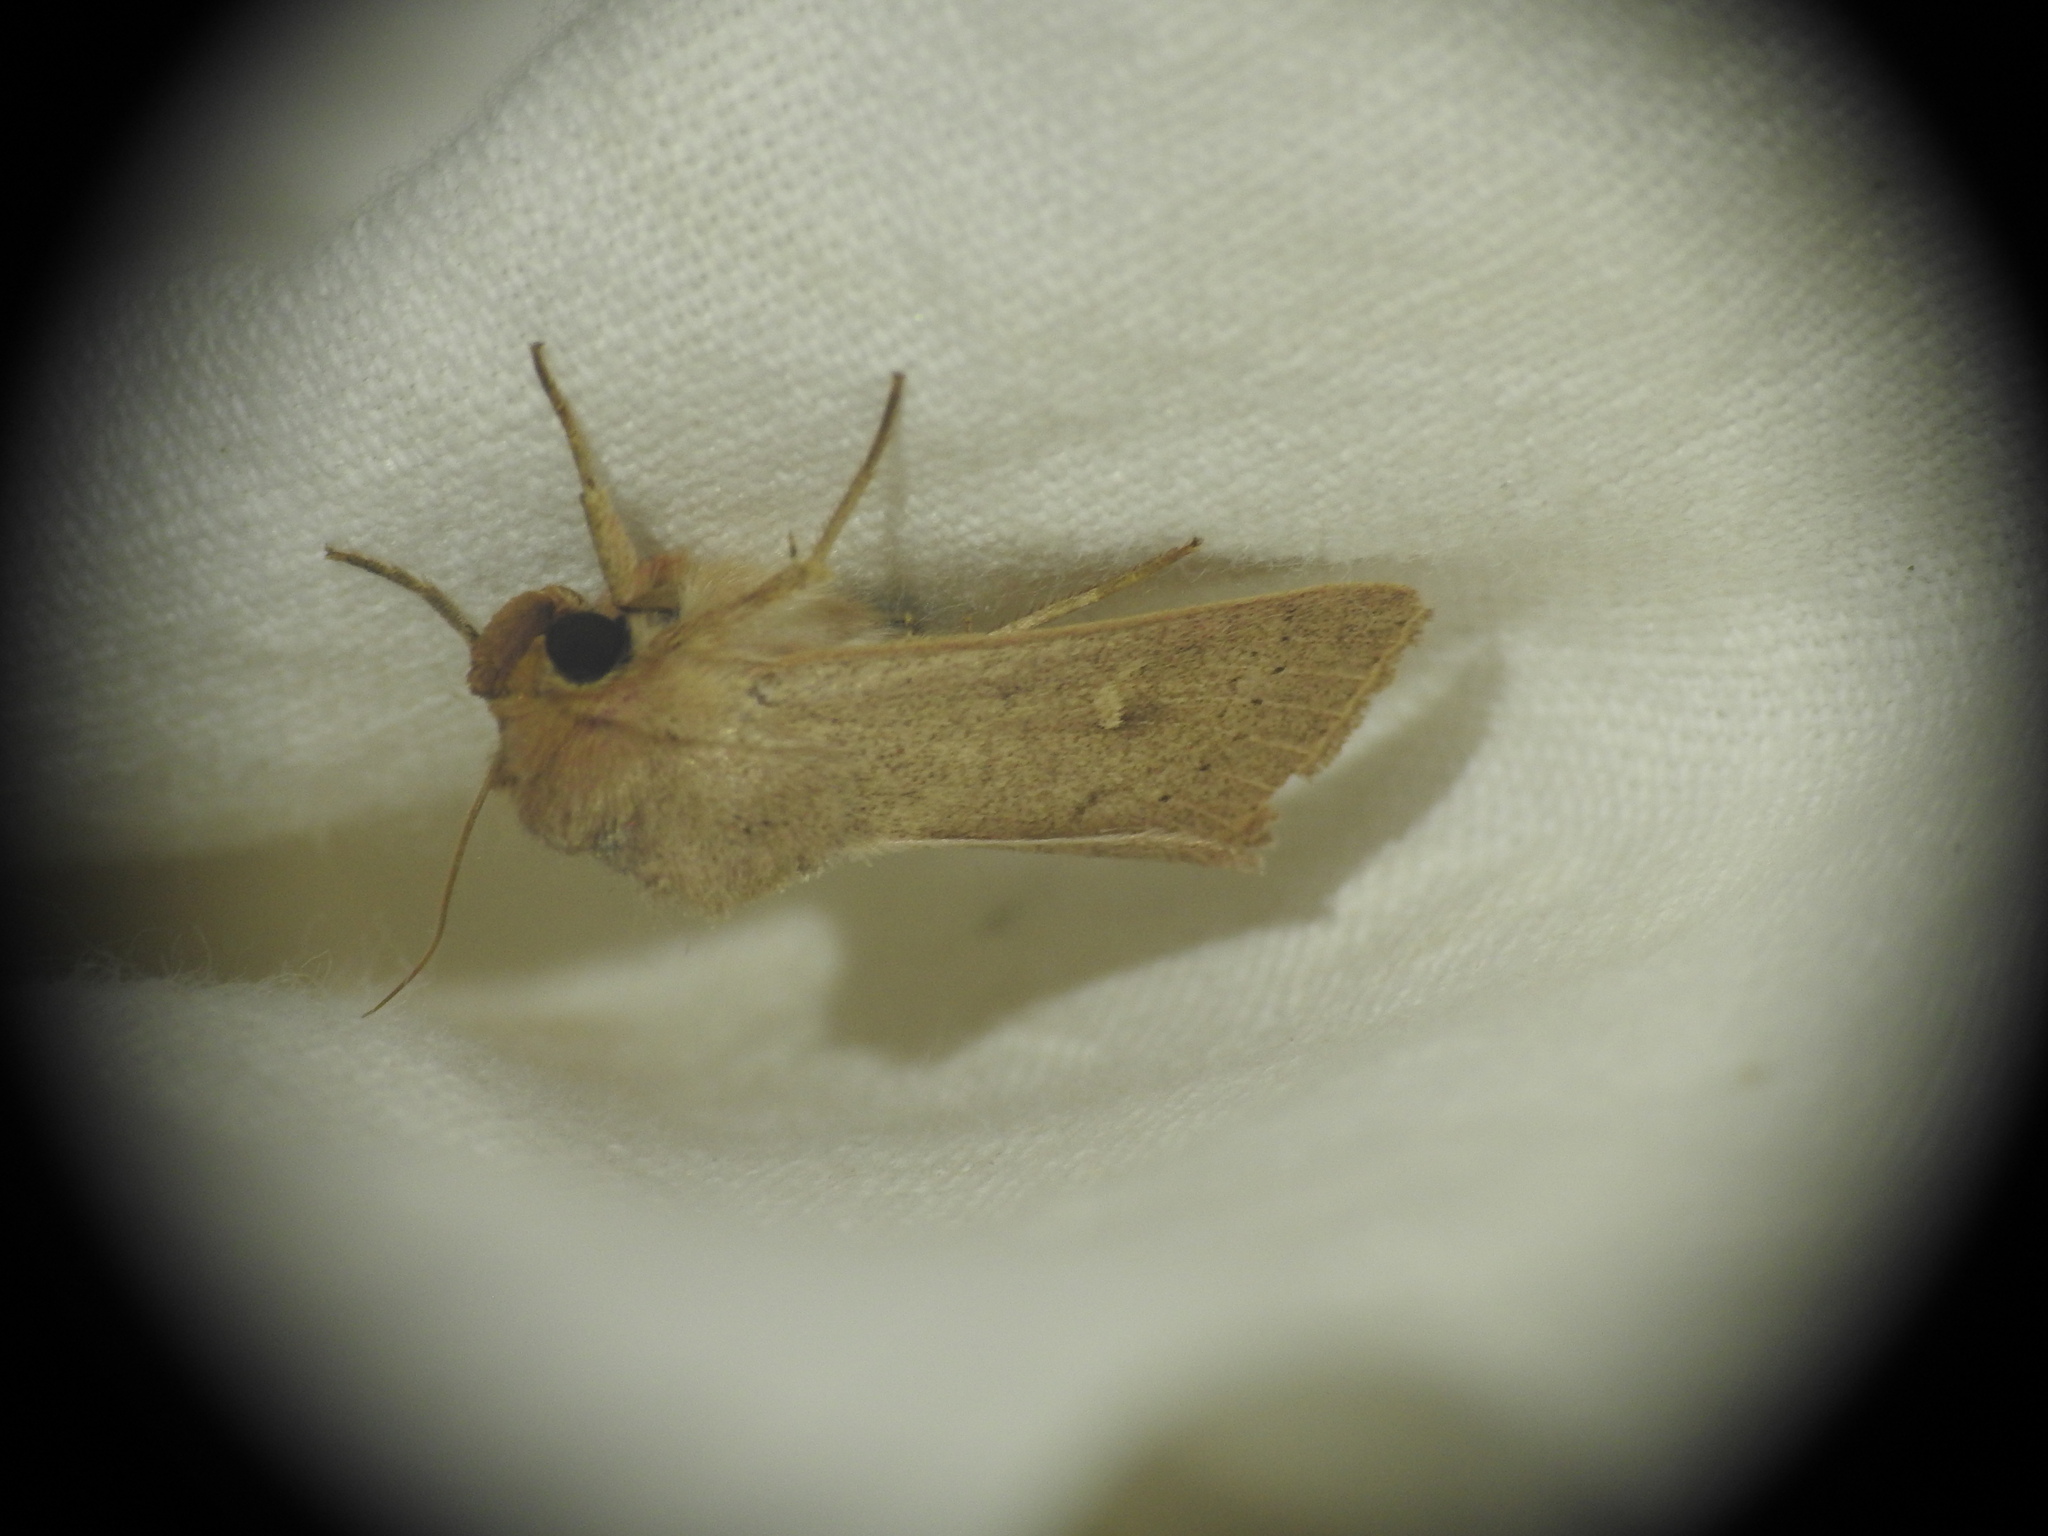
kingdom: Animalia
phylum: Arthropoda
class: Insecta
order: Lepidoptera
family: Noctuidae
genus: Mythimna
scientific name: Mythimna ferrago
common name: Clay
